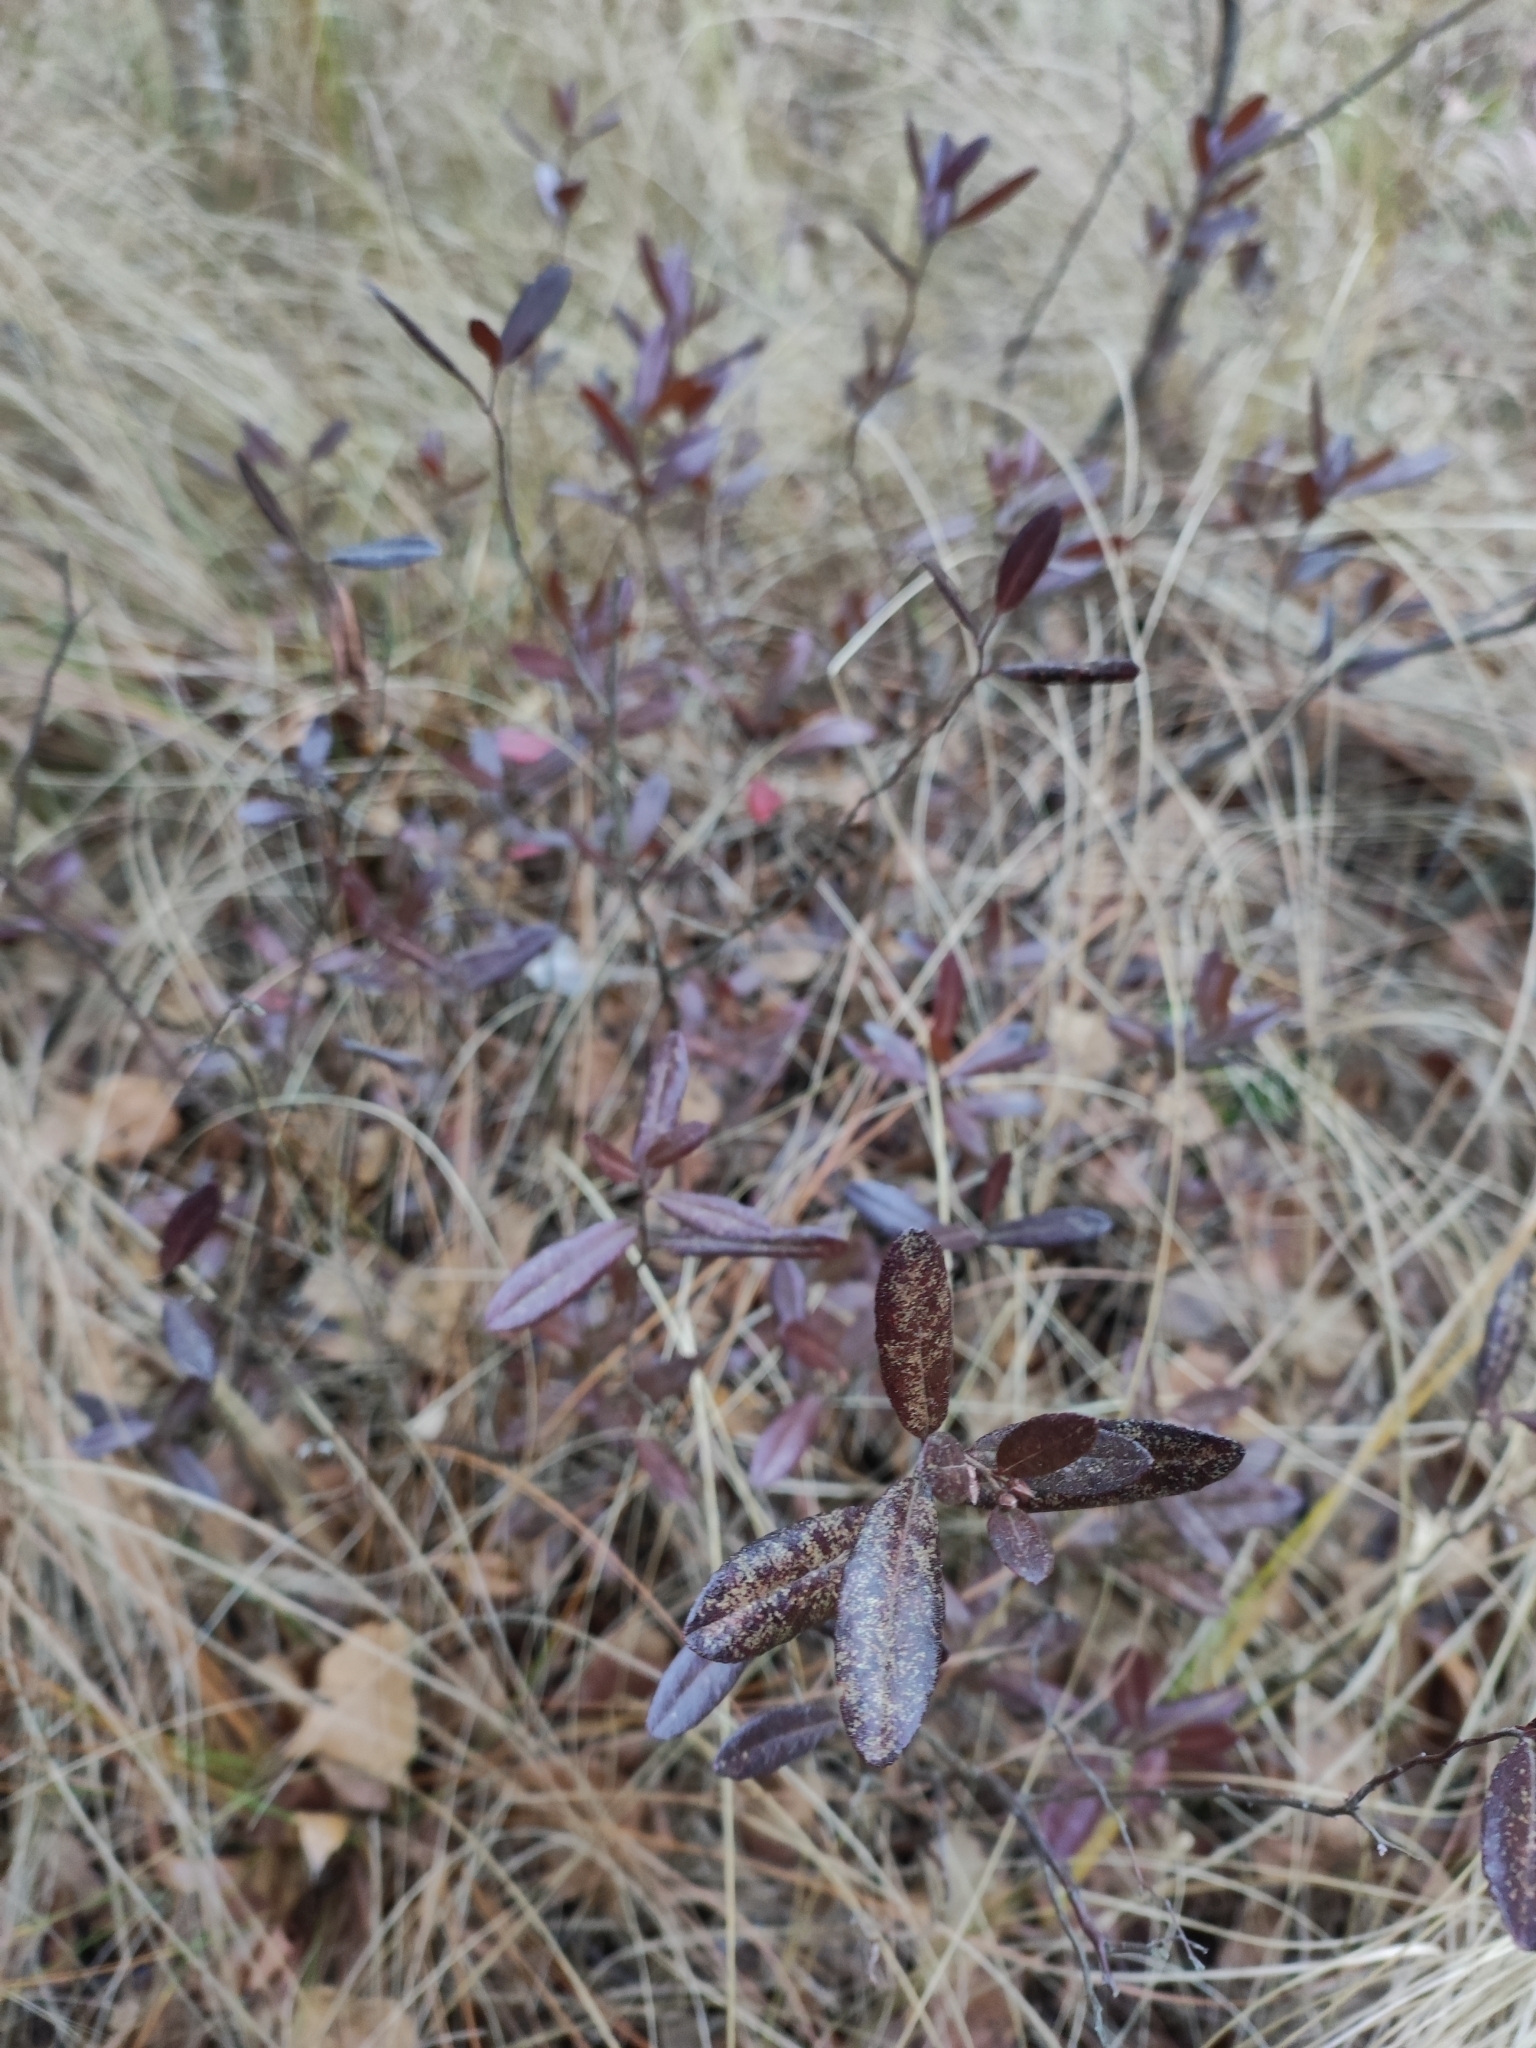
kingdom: Plantae
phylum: Tracheophyta
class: Magnoliopsida
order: Ericales
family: Ericaceae
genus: Chamaedaphne
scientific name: Chamaedaphne calyculata
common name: Leatherleaf
